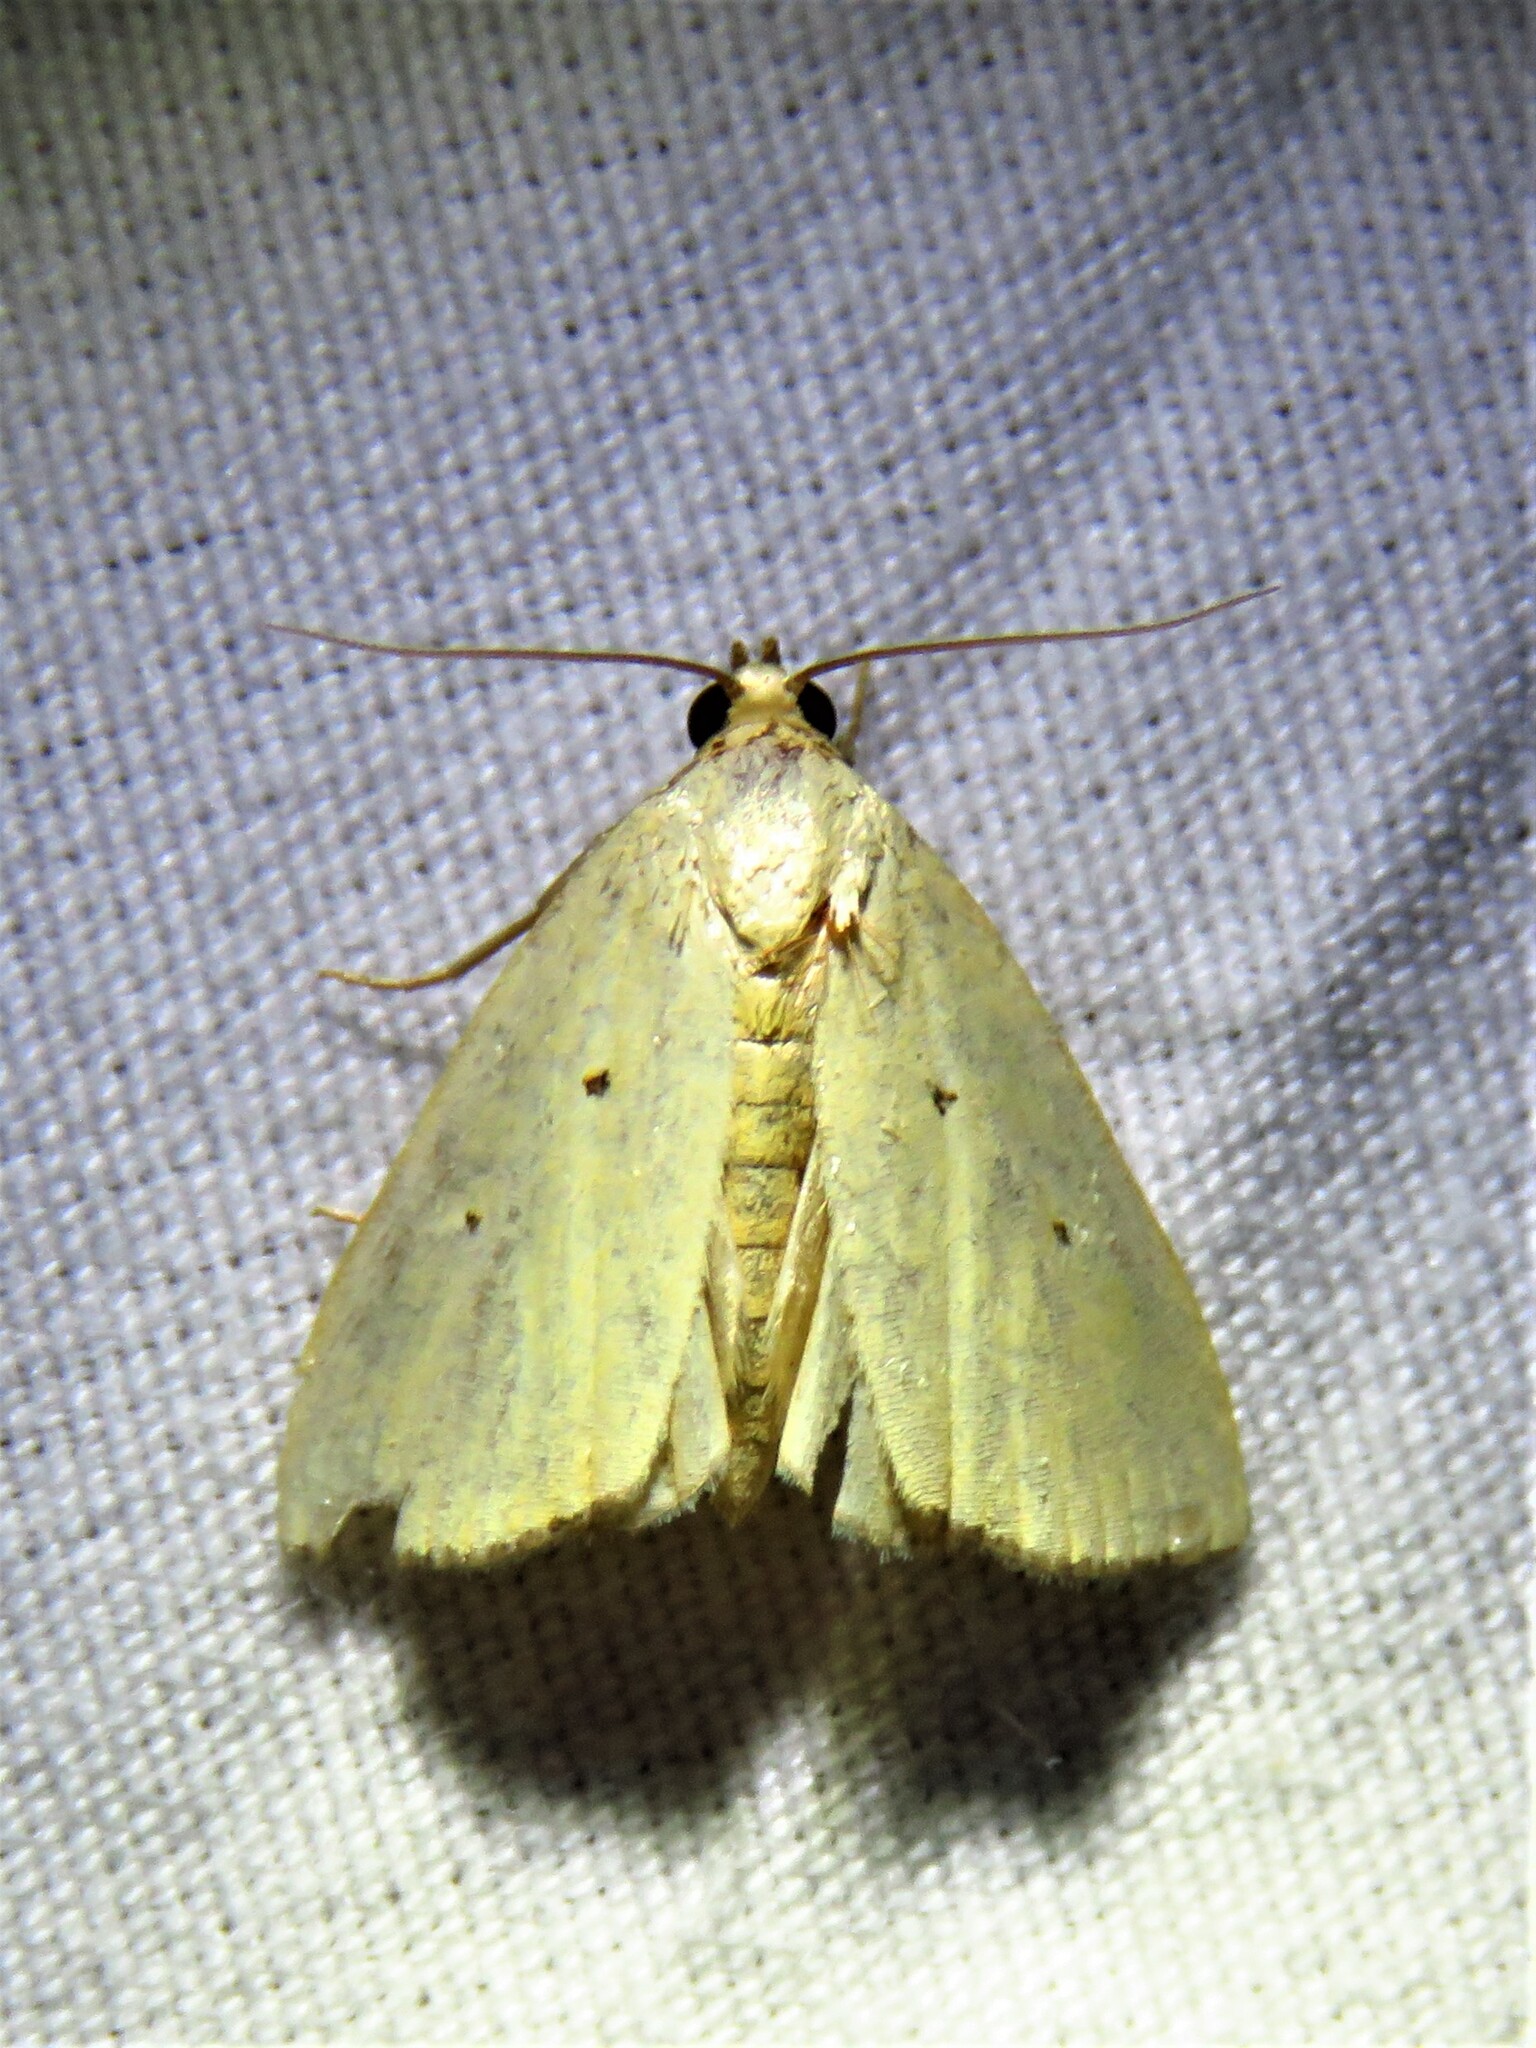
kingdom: Animalia
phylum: Arthropoda
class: Insecta
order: Lepidoptera
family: Noctuidae
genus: Marimatha
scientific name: Marimatha nigrofimbria
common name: Black-bordered lemon moth
